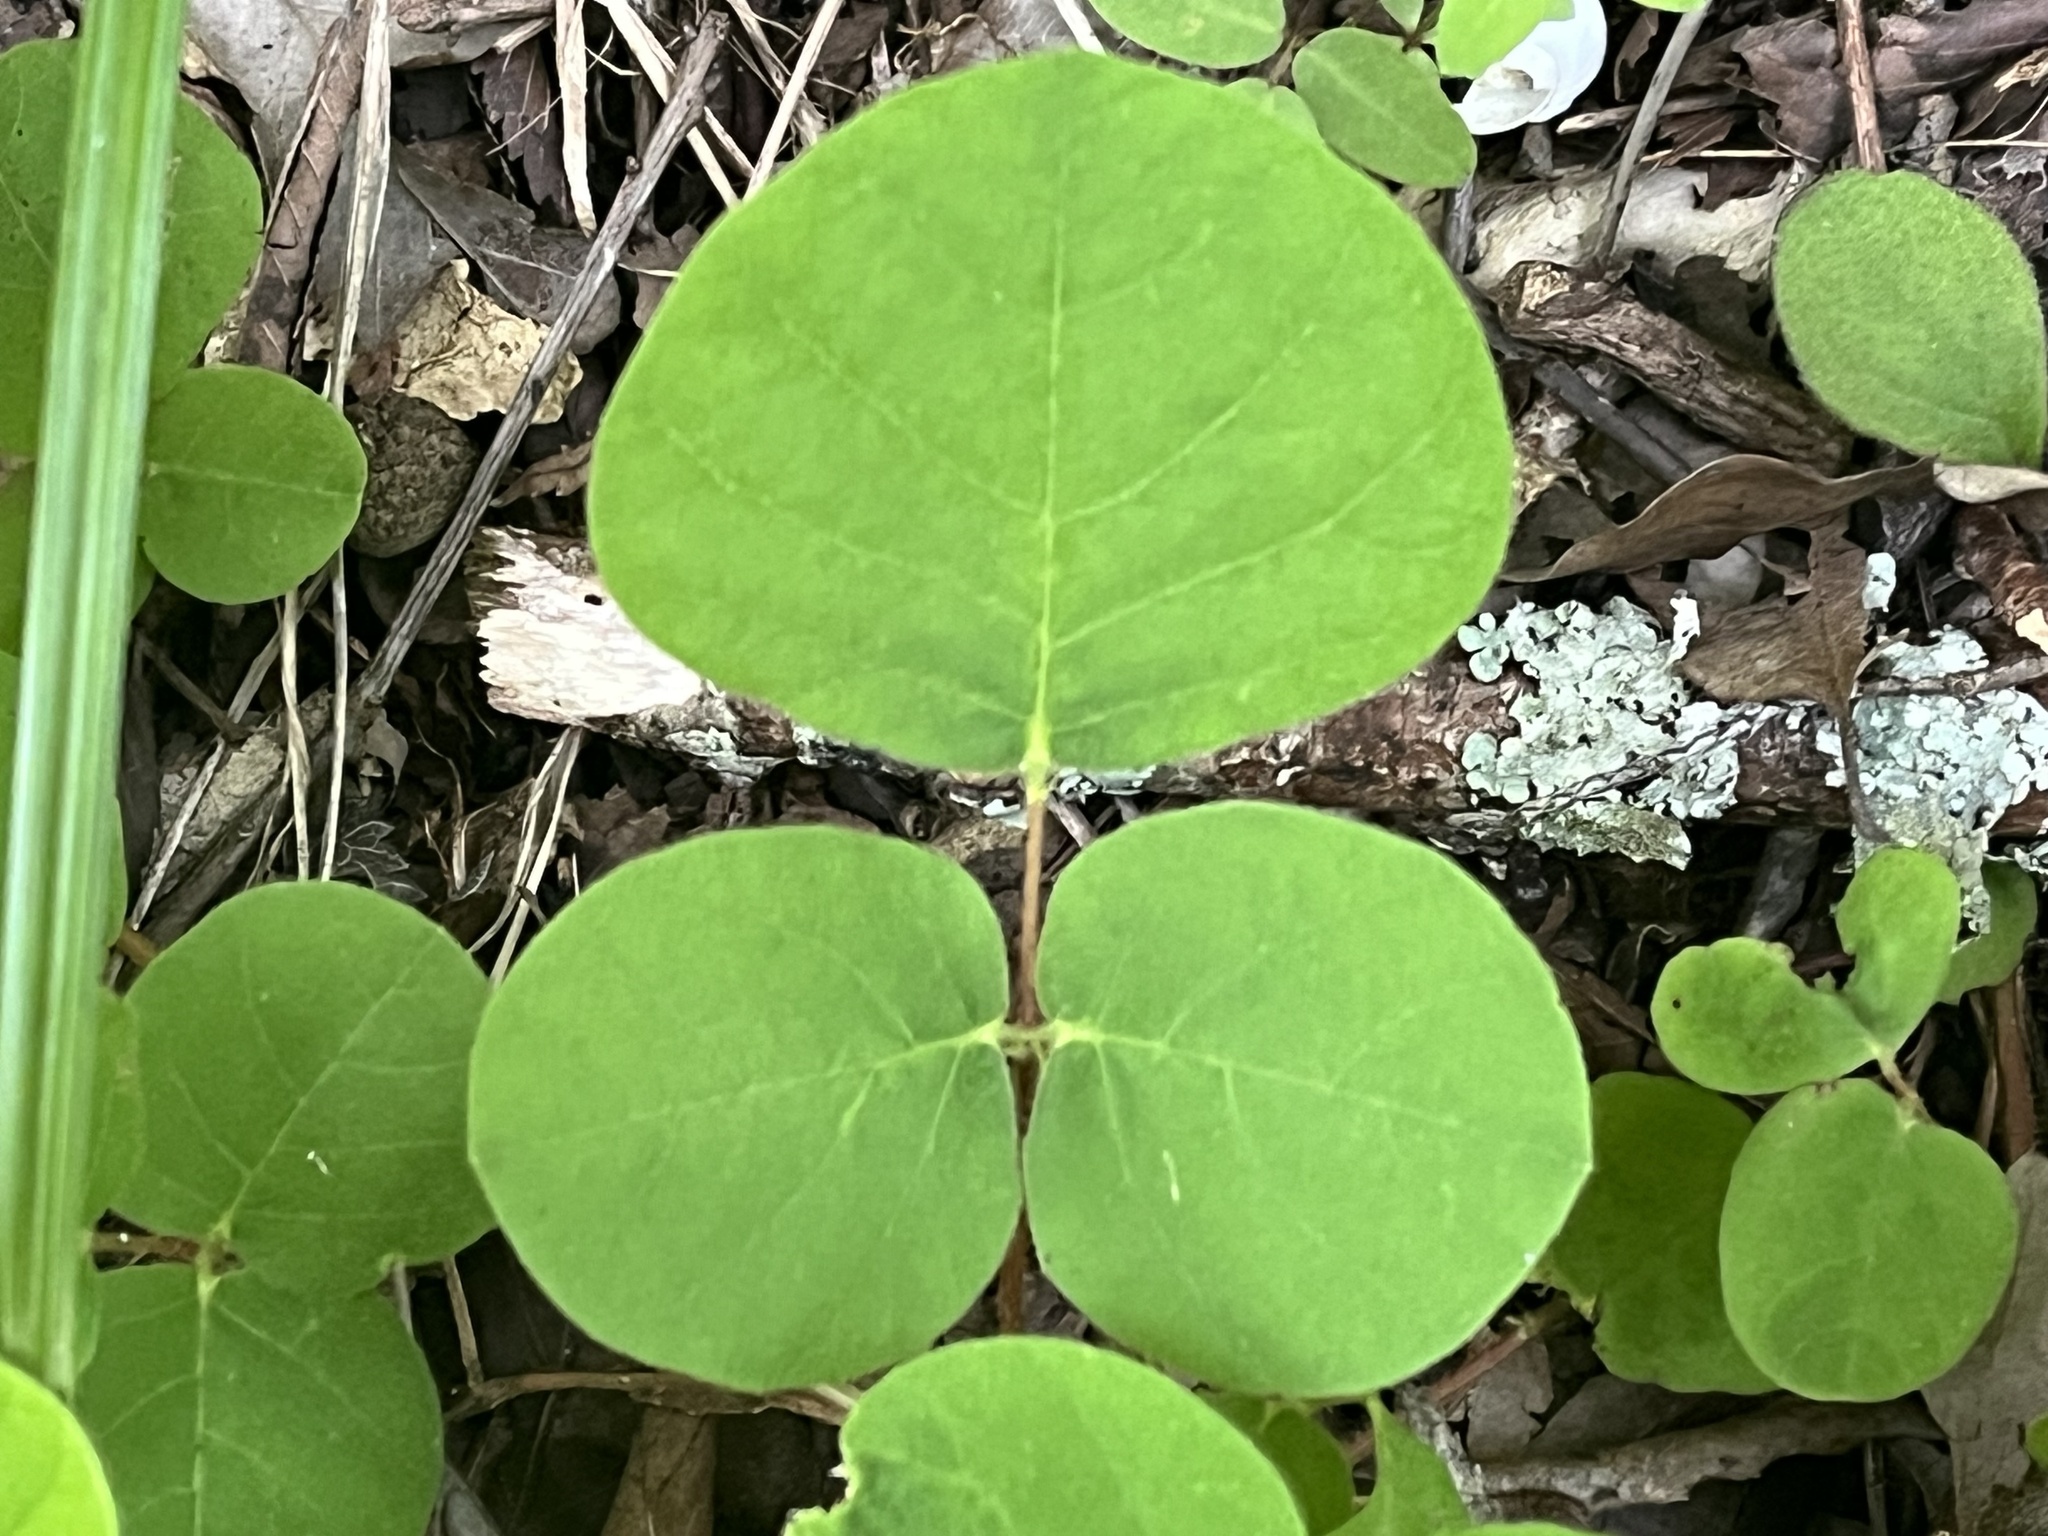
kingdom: Plantae
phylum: Tracheophyta
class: Magnoliopsida
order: Fabales
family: Fabaceae
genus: Desmodium
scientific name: Desmodium rotundifolium
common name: Dollarleaf
